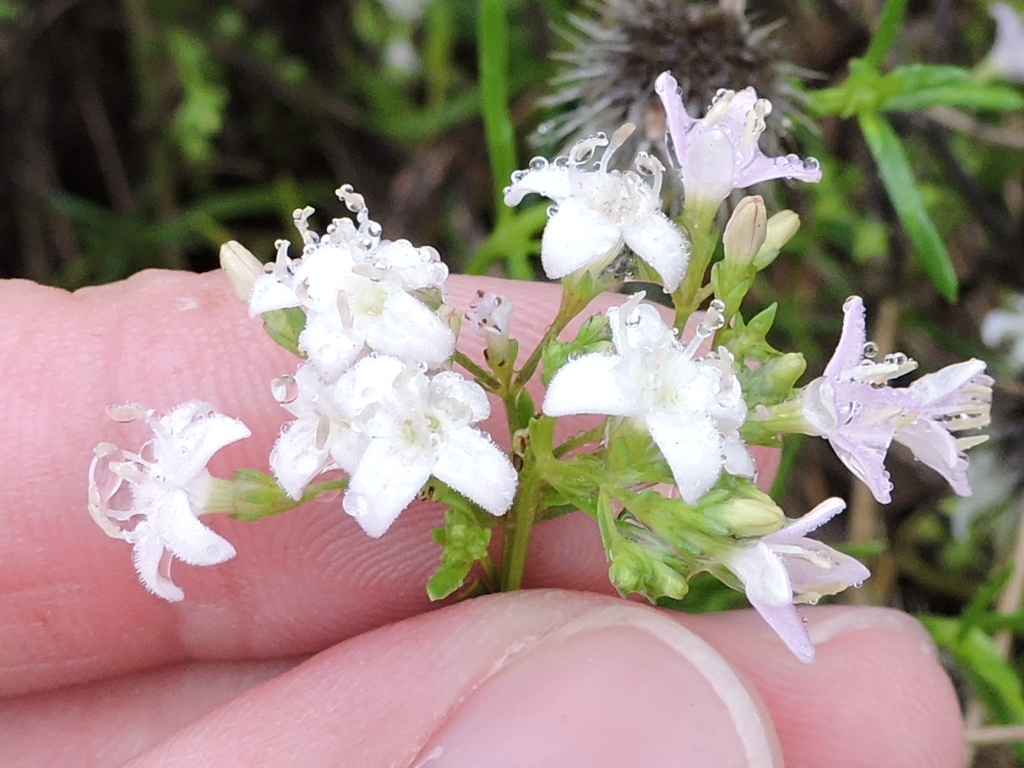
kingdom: Plantae
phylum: Tracheophyta
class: Magnoliopsida
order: Gentianales
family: Rubiaceae
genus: Stenaria
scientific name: Stenaria nigricans
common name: Diamondflowers
